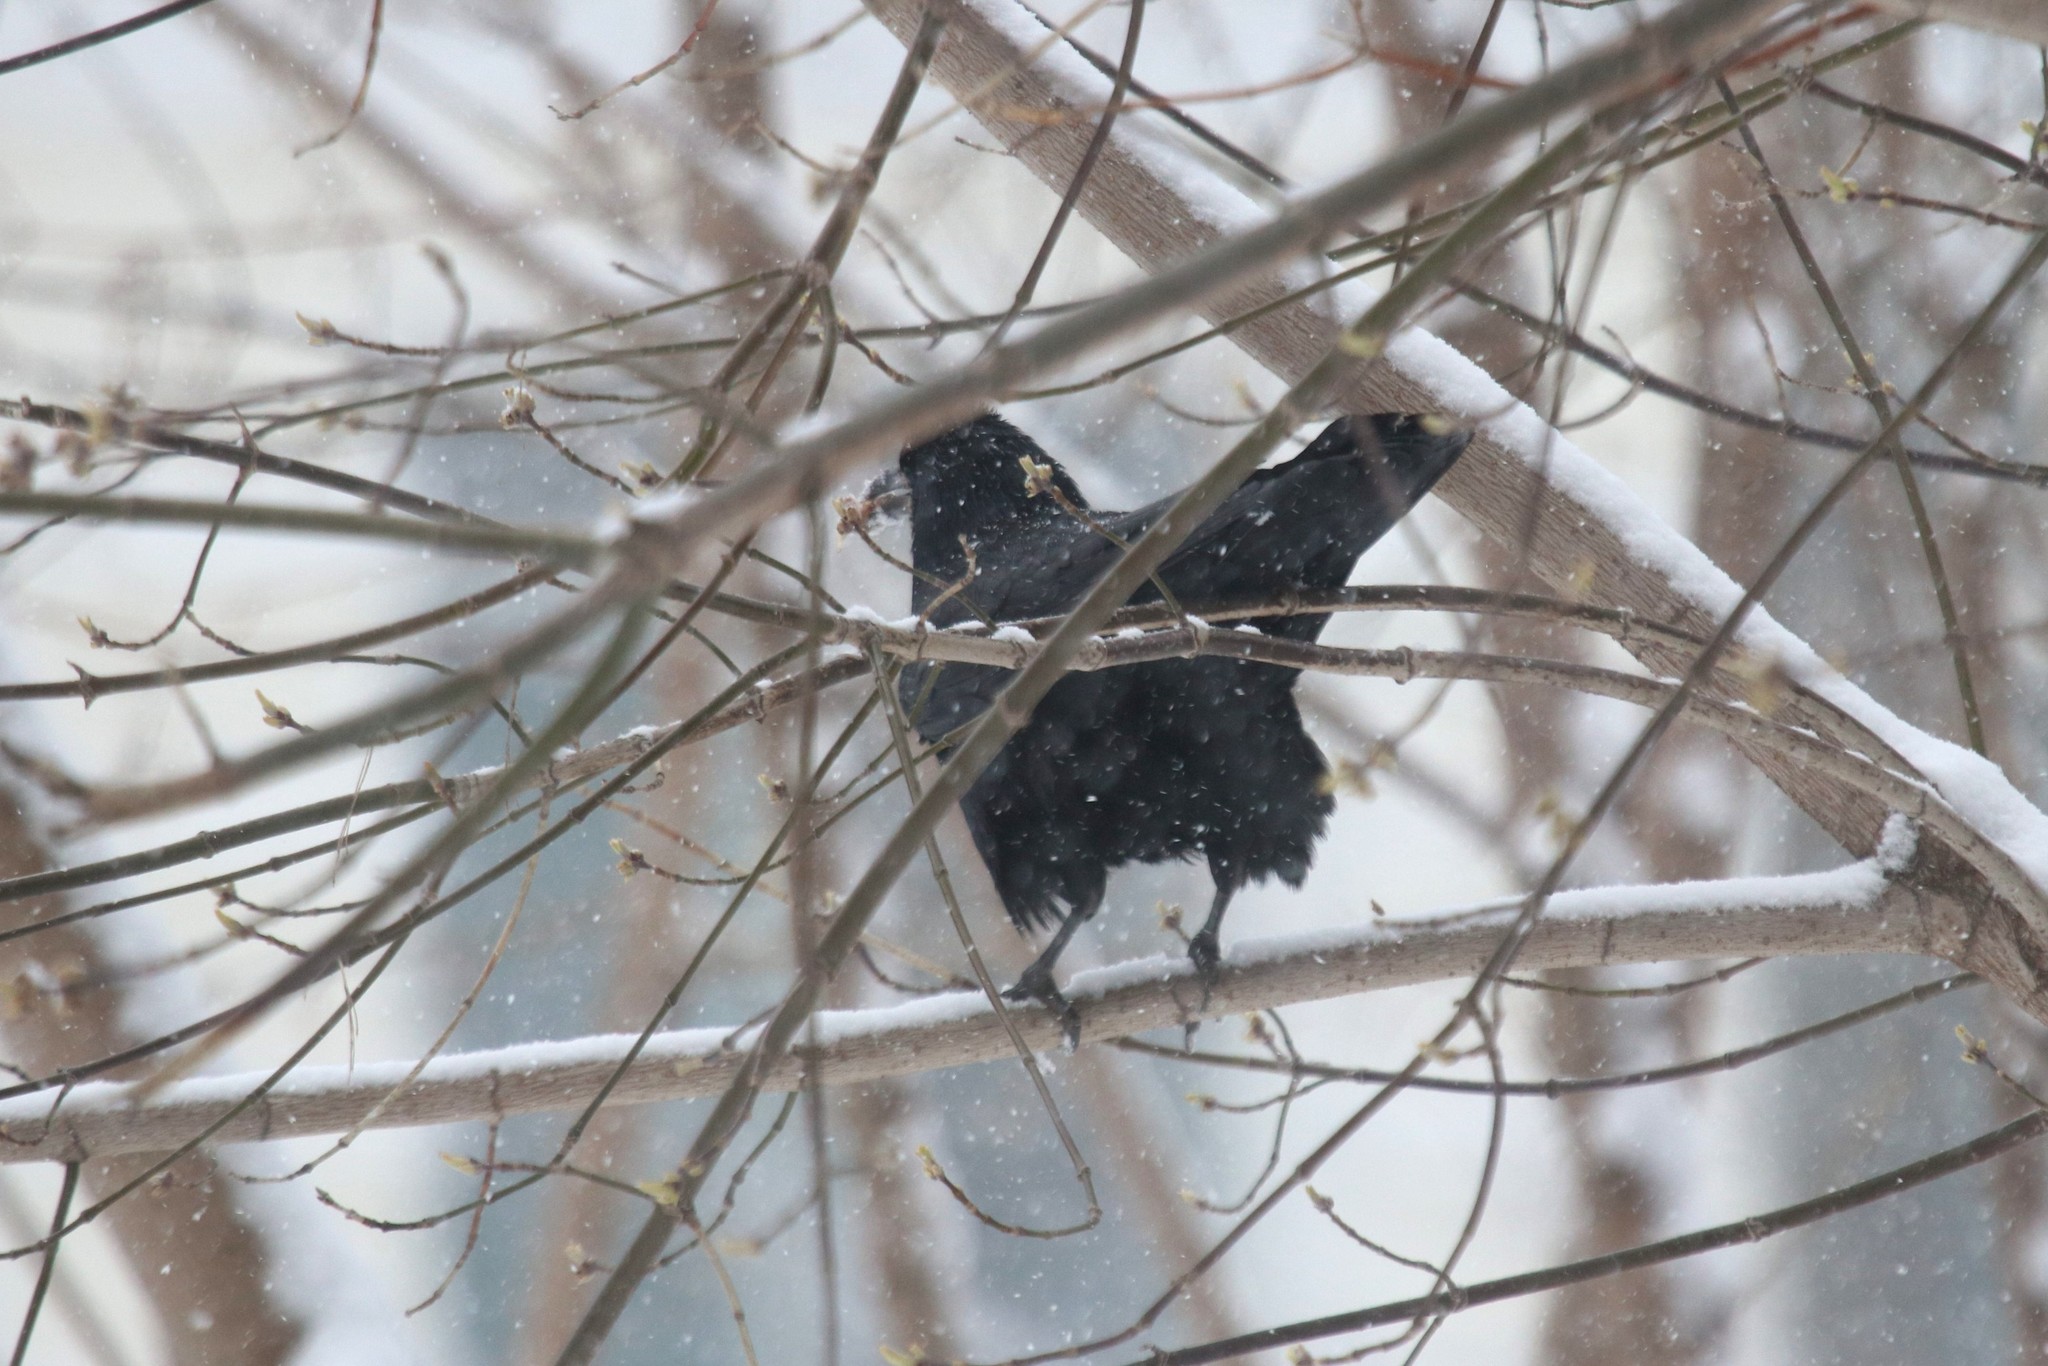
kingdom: Animalia
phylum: Chordata
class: Aves
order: Passeriformes
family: Corvidae
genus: Corvus
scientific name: Corvus frugilegus
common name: Rook
